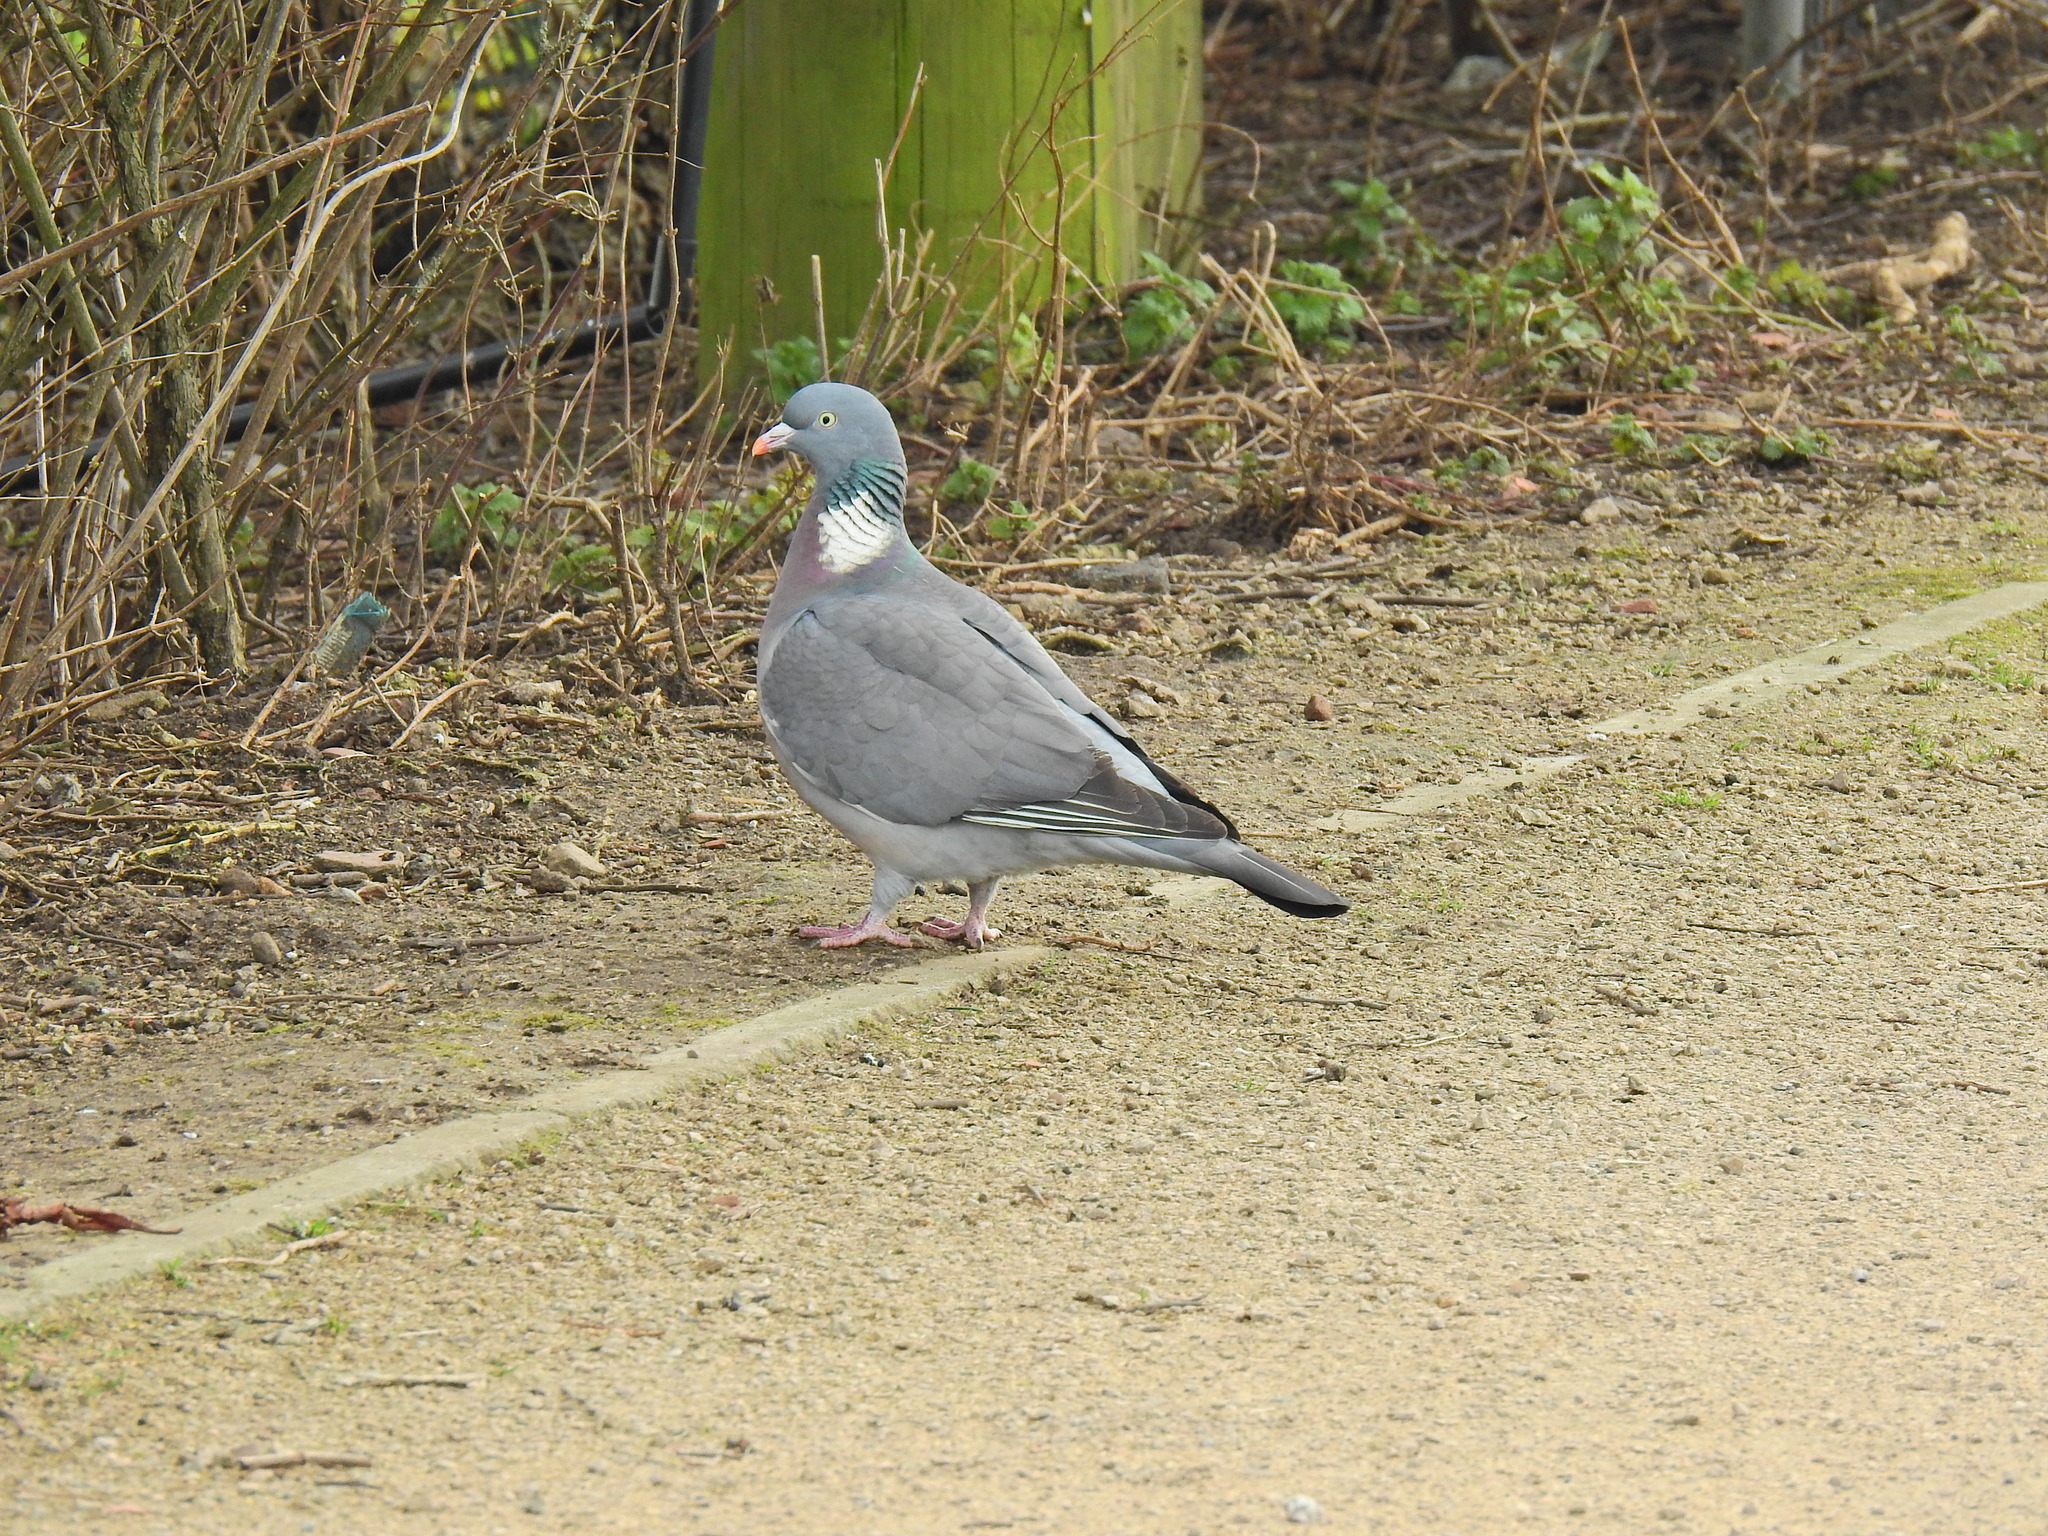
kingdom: Animalia
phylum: Chordata
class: Aves
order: Columbiformes
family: Columbidae
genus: Columba
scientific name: Columba palumbus
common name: Common wood pigeon
